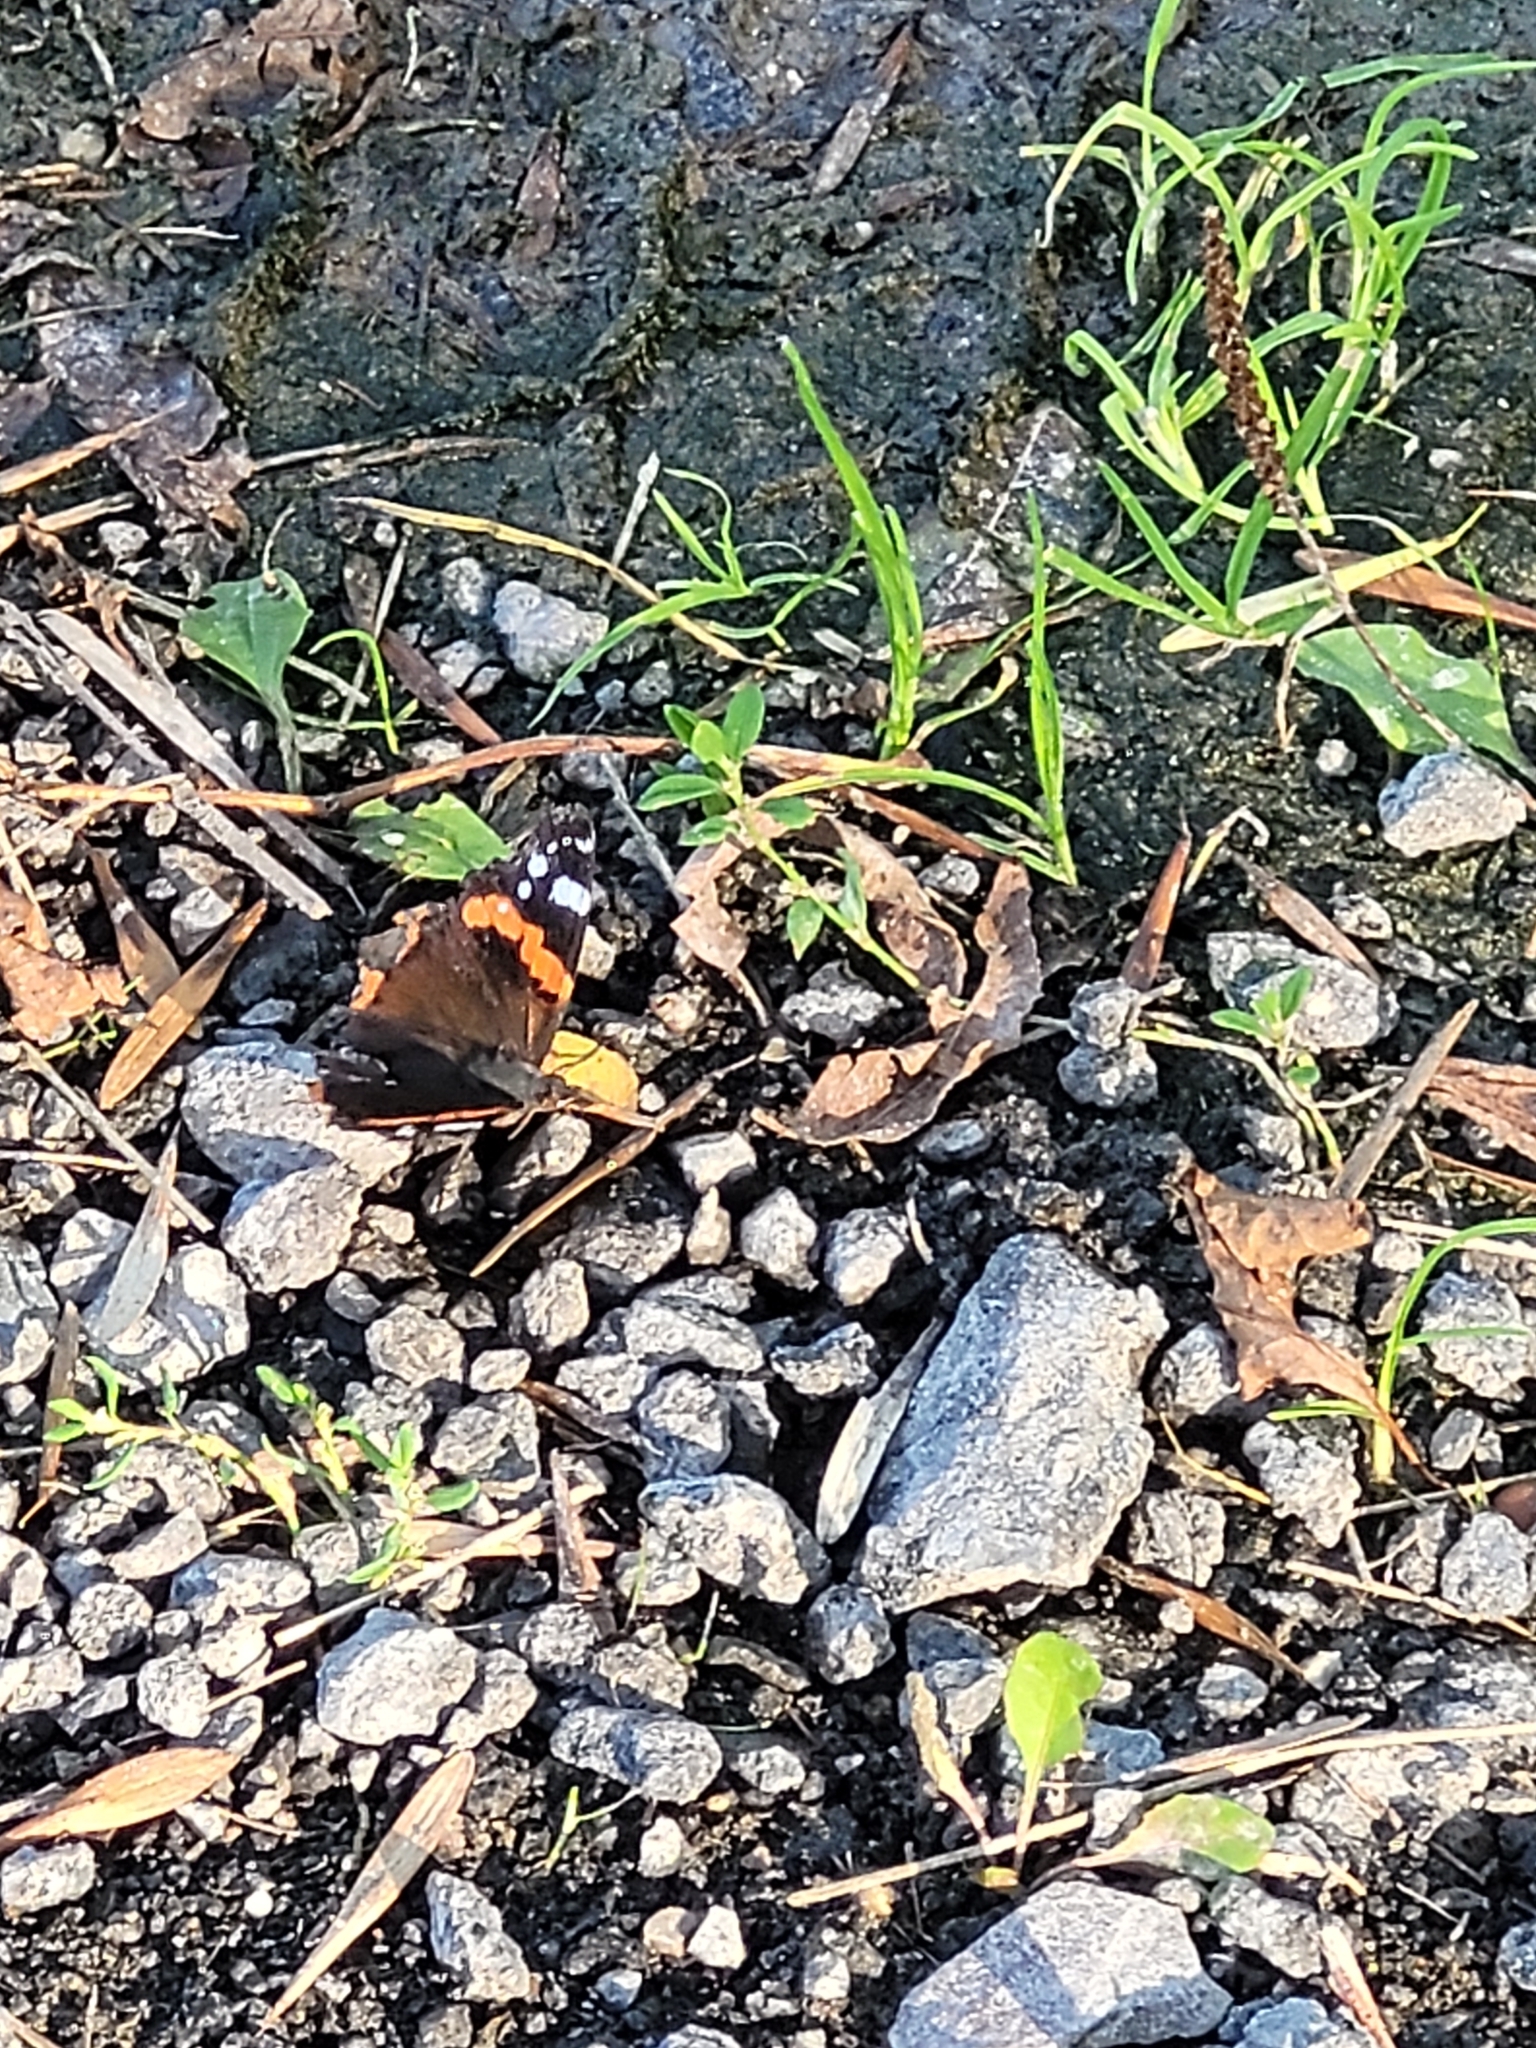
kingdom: Animalia
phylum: Arthropoda
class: Insecta
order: Lepidoptera
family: Nymphalidae
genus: Vanessa
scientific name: Vanessa atalanta
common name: Red admiral
